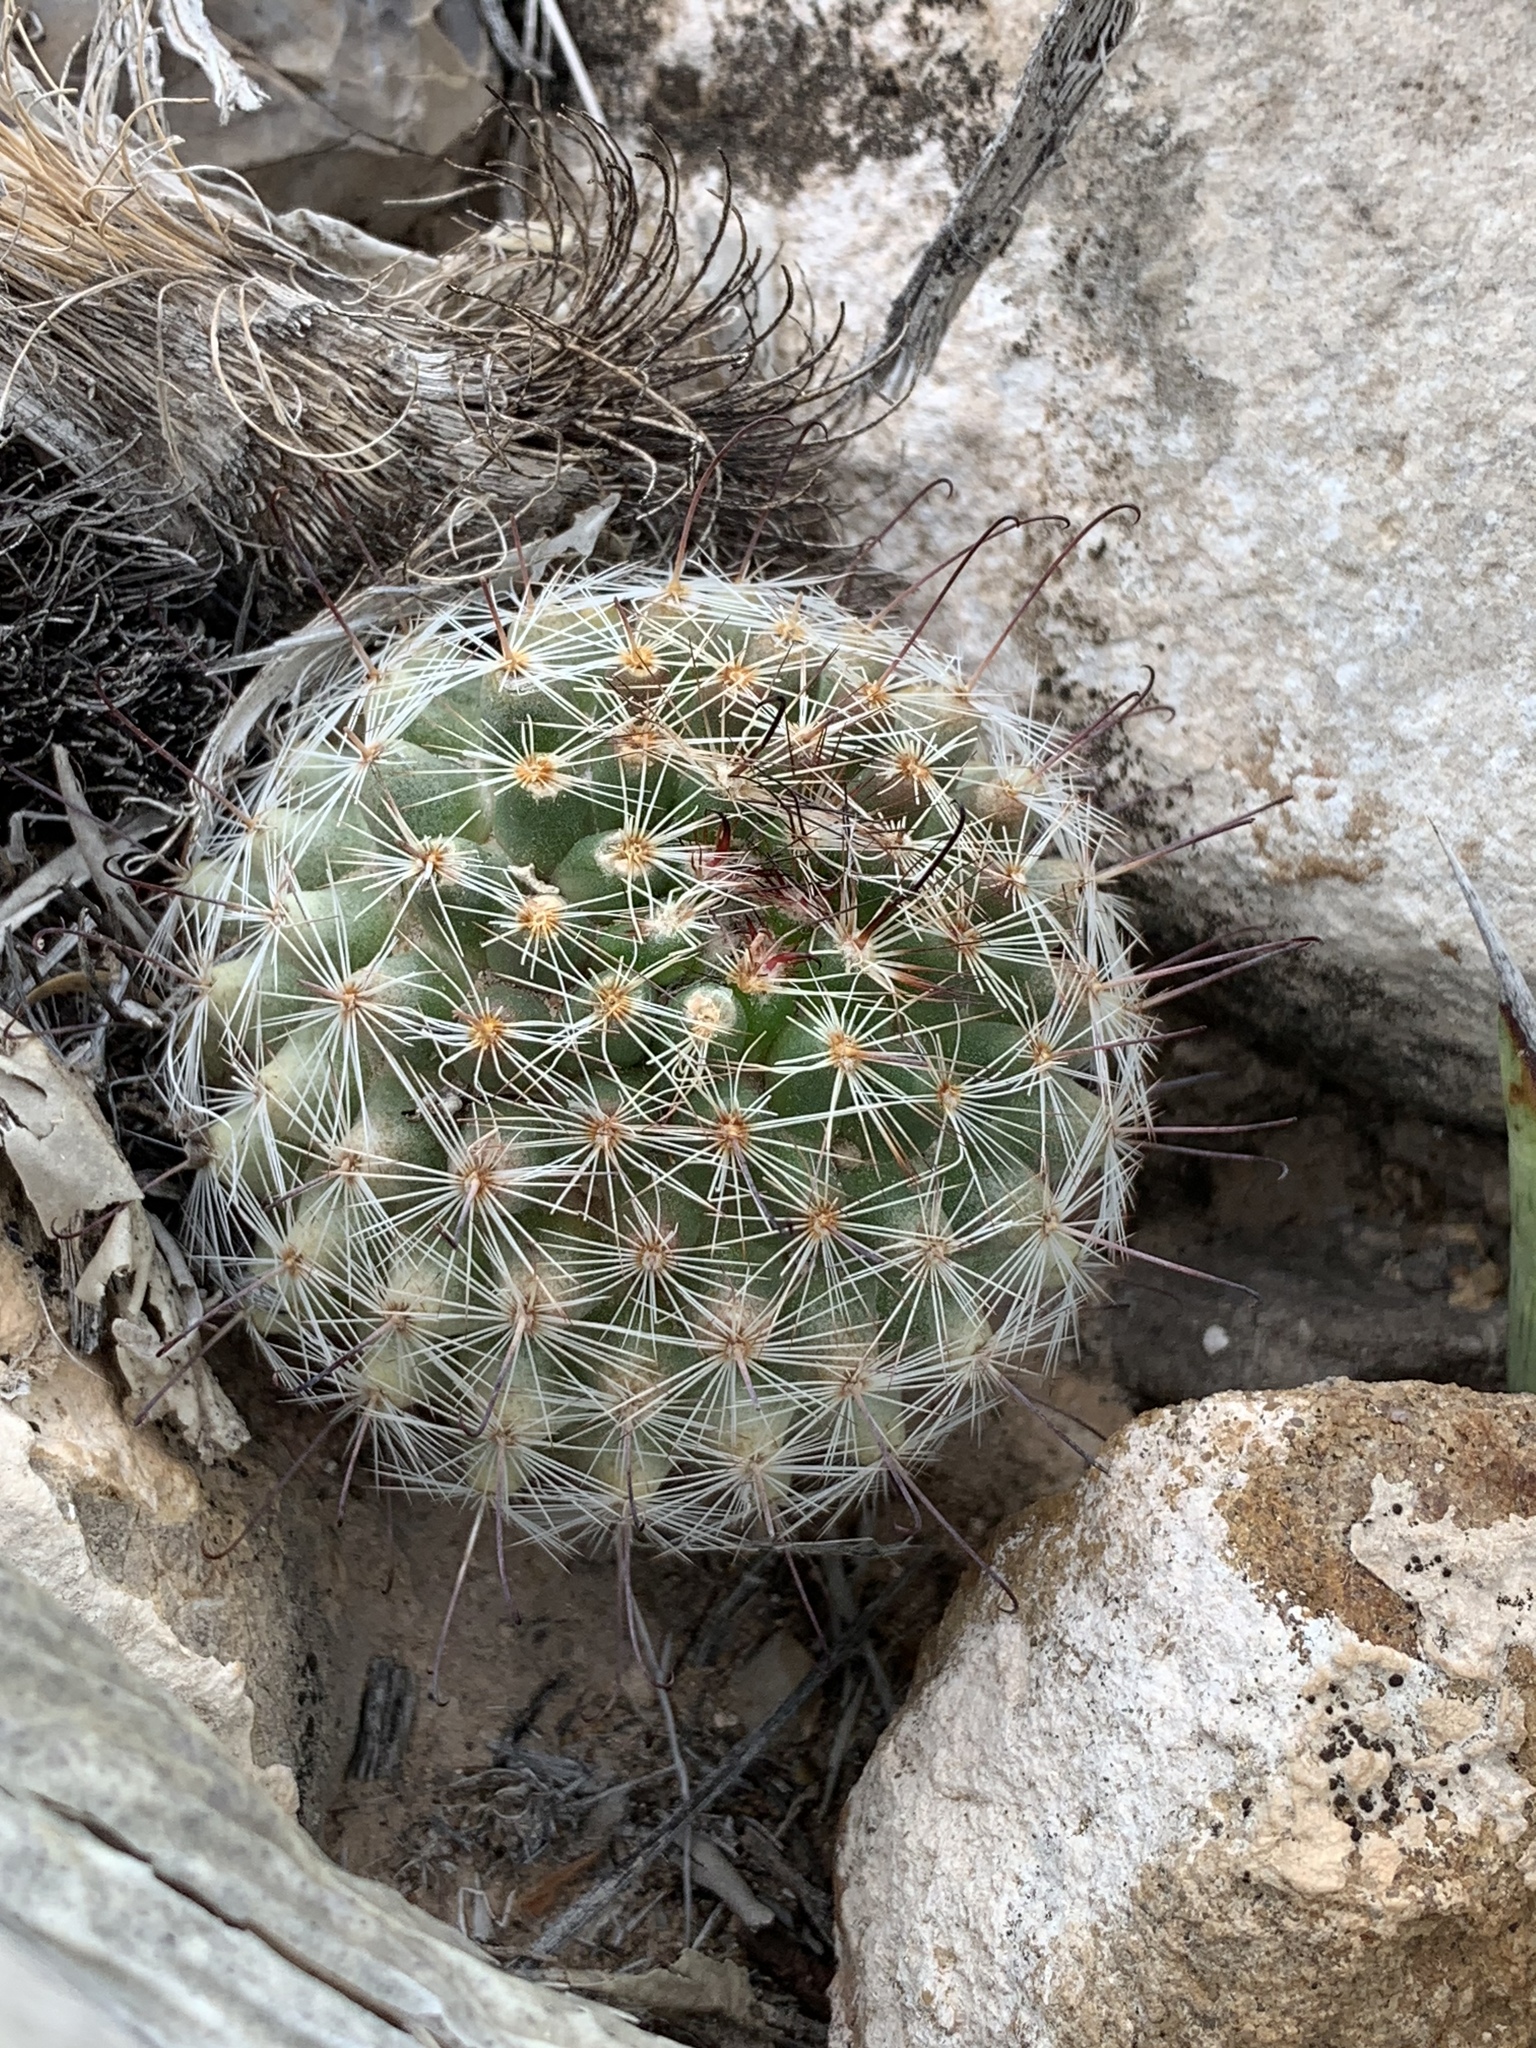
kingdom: Plantae
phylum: Tracheophyta
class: Magnoliopsida
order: Caryophyllales
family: Cactaceae
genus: Cochemiea
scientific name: Cochemiea grahamii
